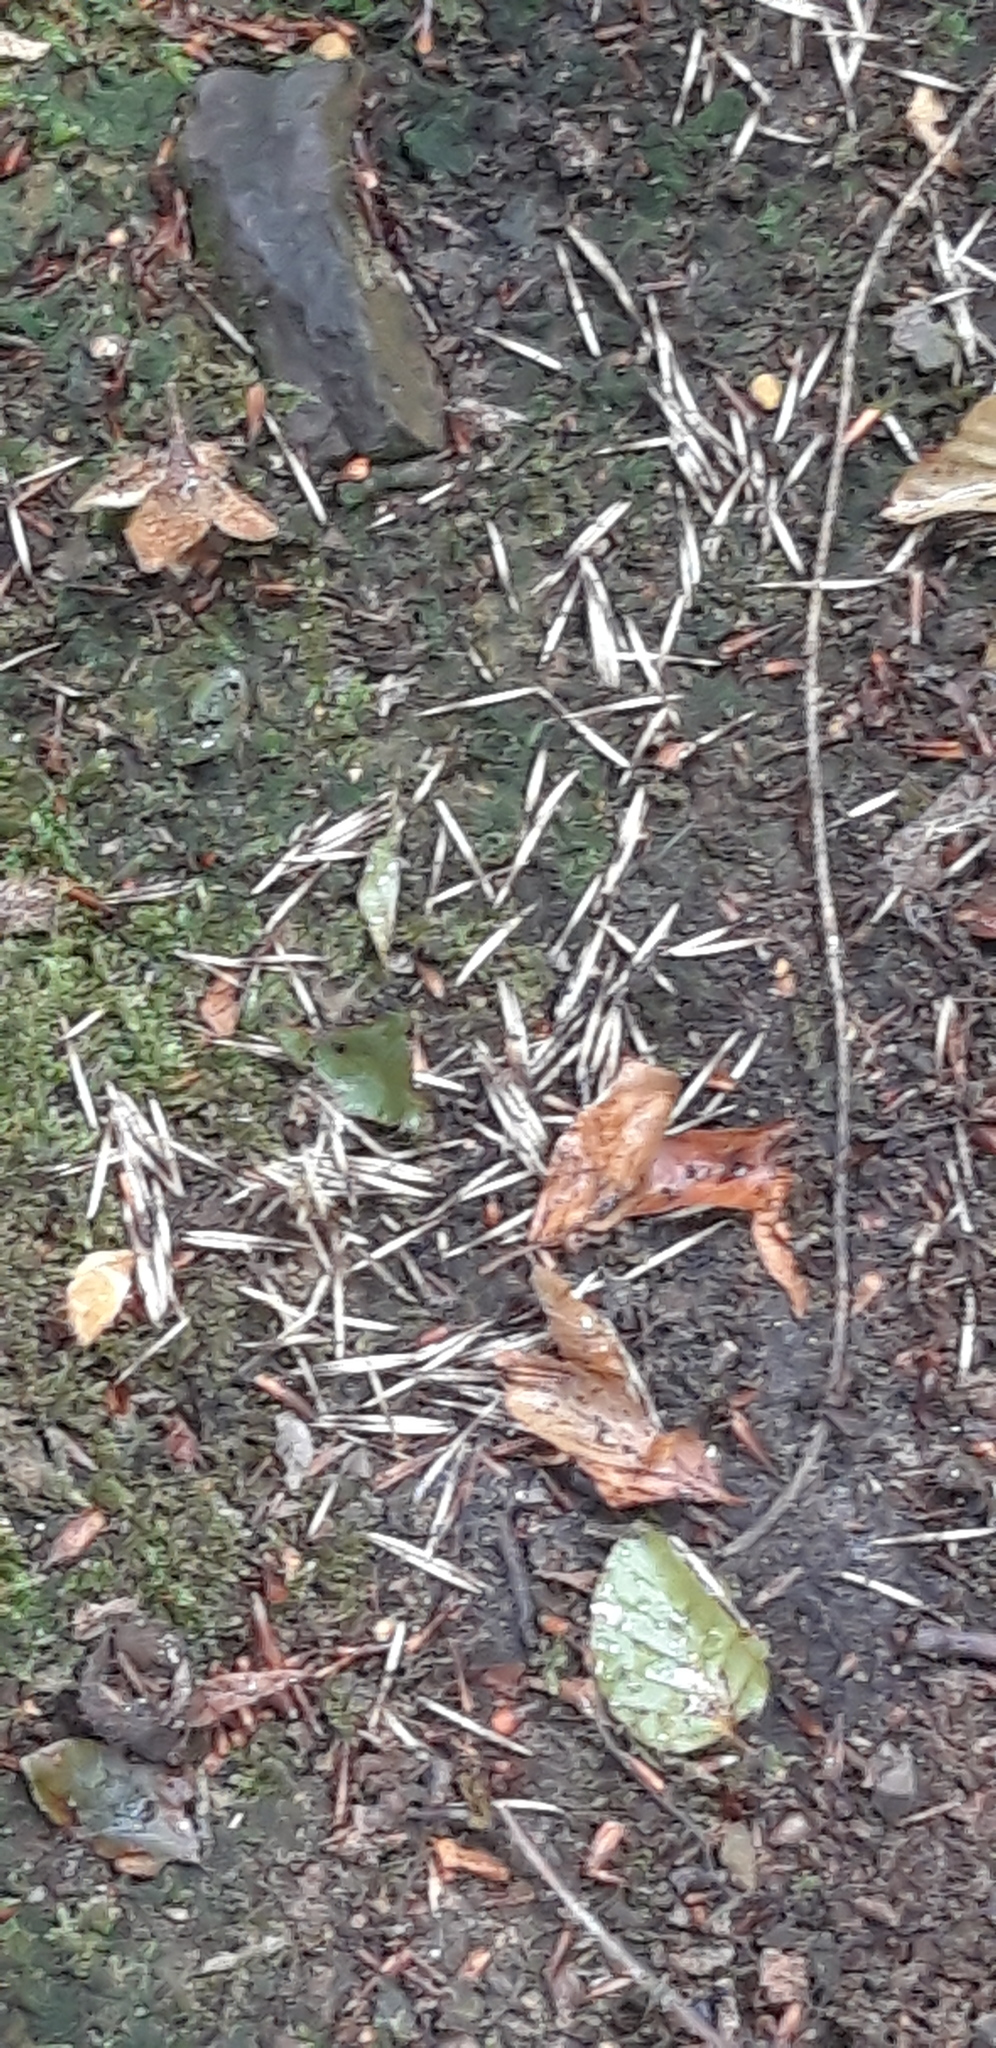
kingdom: Animalia
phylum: Chordata
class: Mammalia
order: Erinaceomorpha
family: Erinaceidae
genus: Erinaceus
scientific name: Erinaceus europaeus
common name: West european hedgehog
